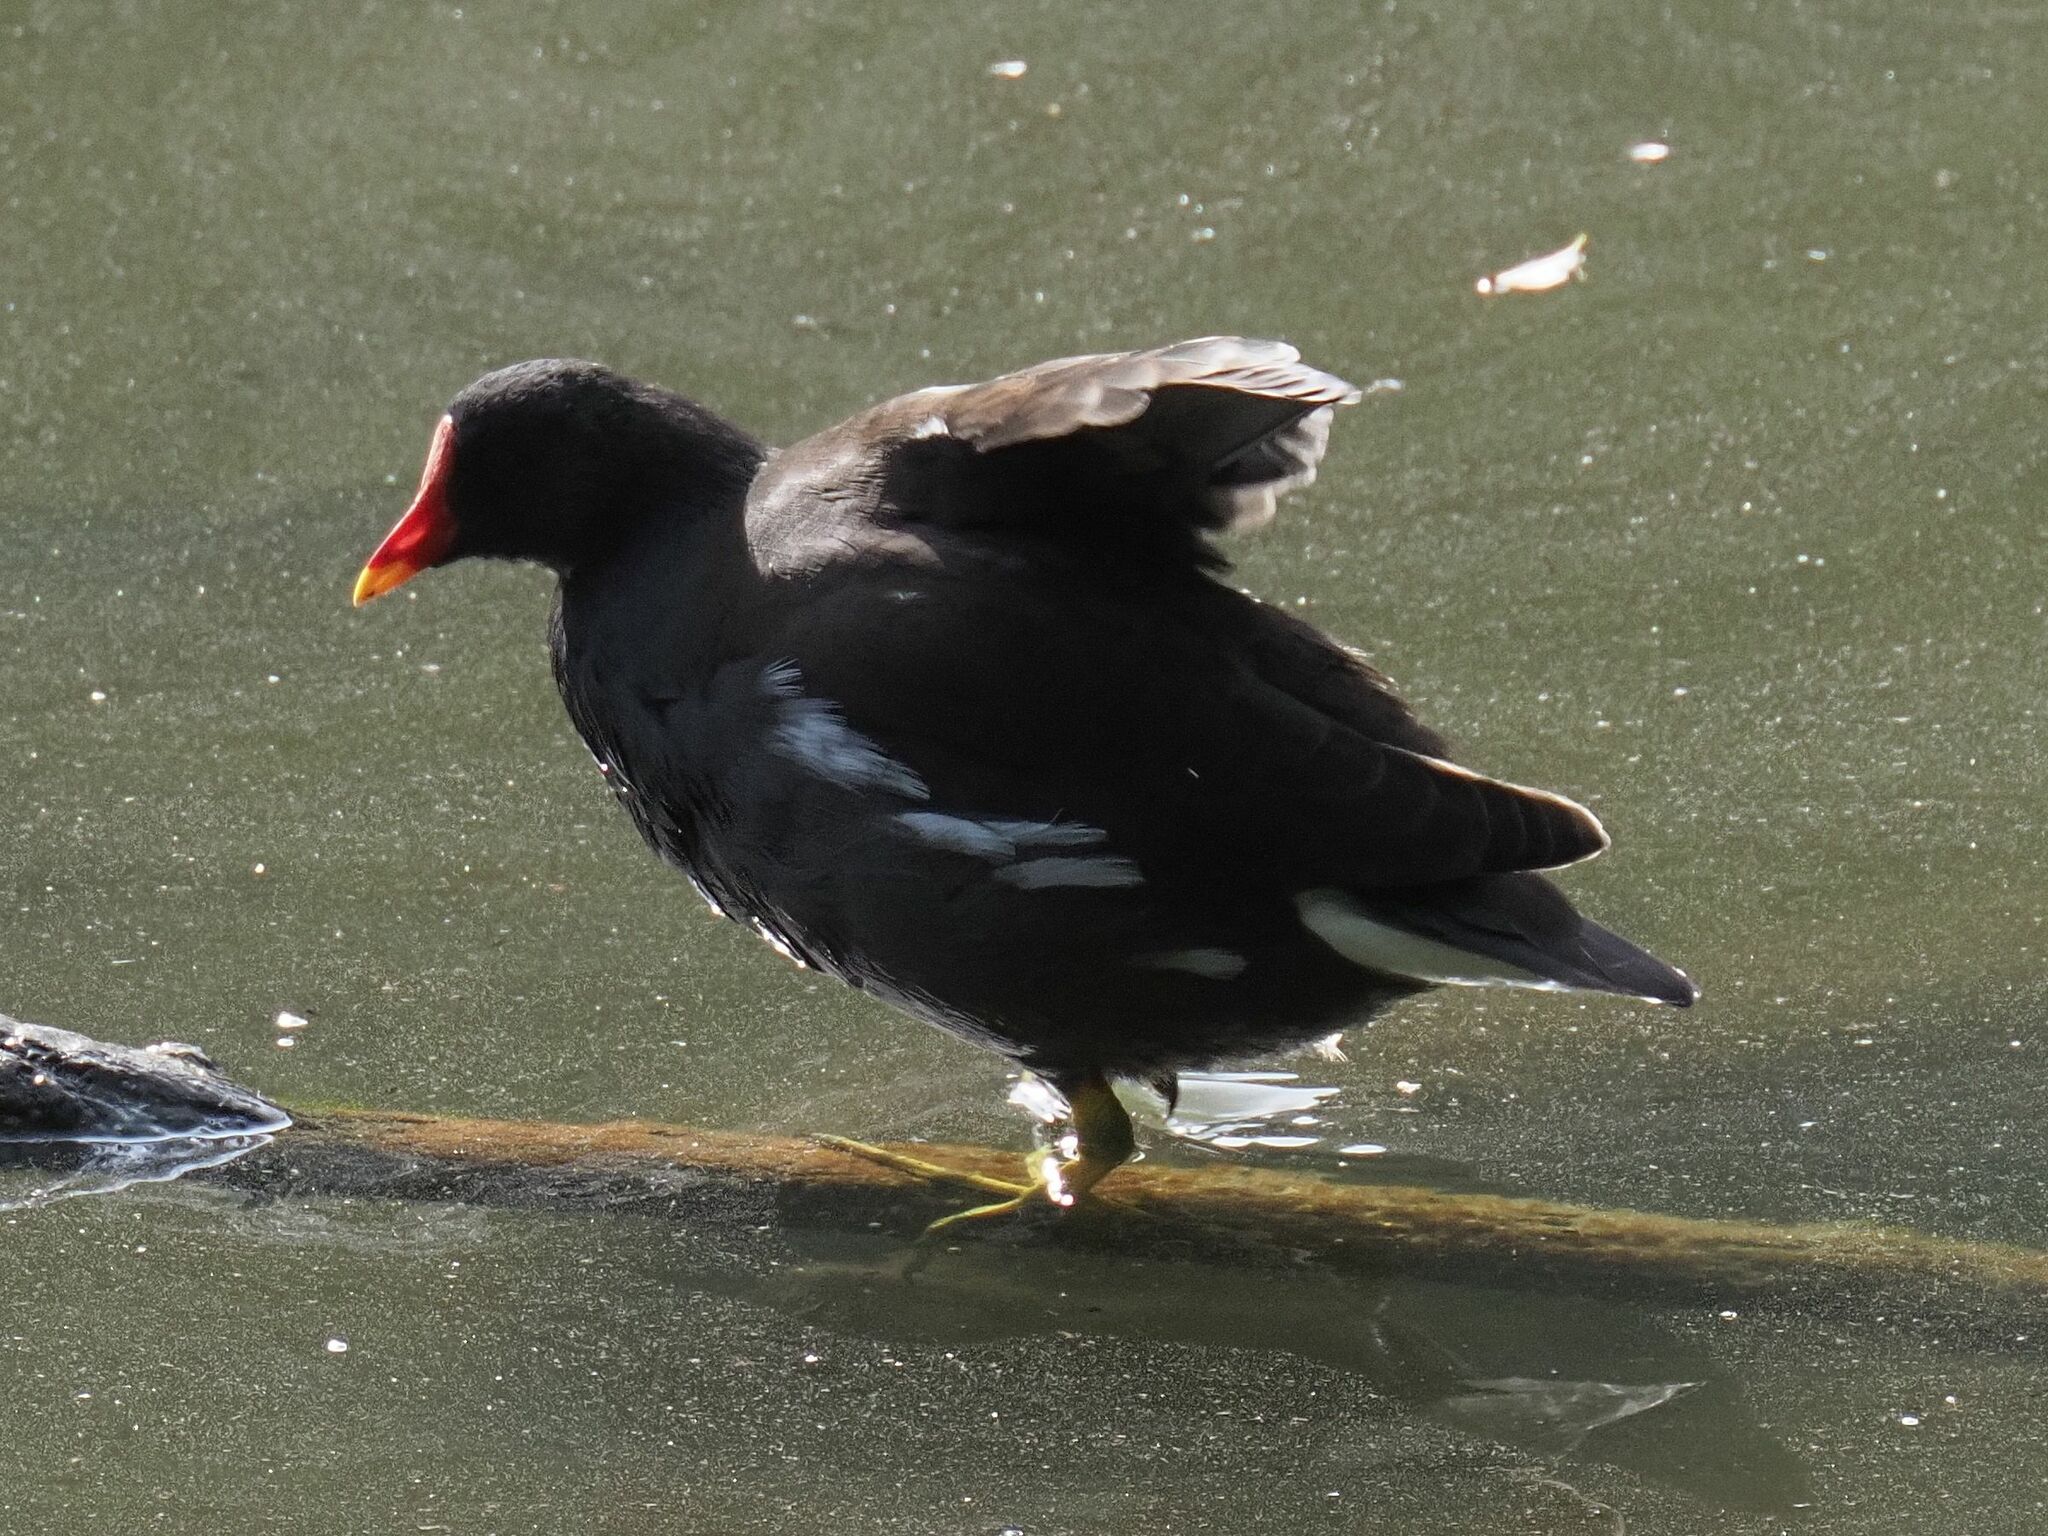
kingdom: Animalia
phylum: Chordata
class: Aves
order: Gruiformes
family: Rallidae
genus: Gallinula
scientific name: Gallinula chloropus
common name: Common moorhen
